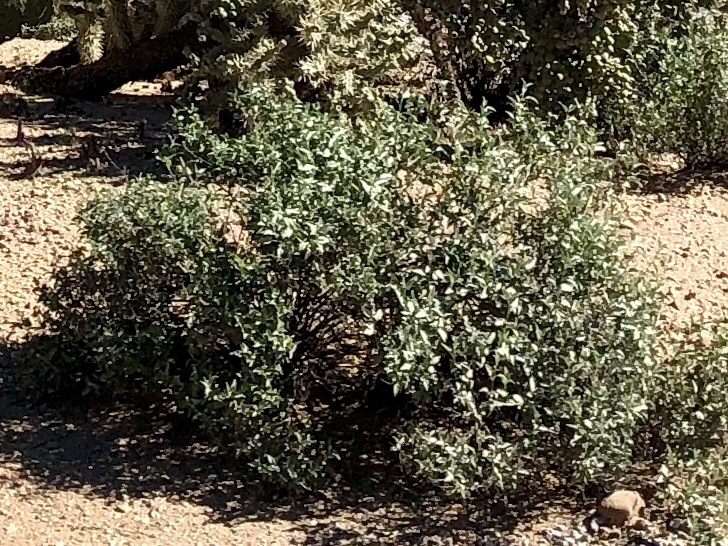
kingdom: Plantae
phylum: Tracheophyta
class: Magnoliopsida
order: Asterales
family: Asteraceae
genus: Ambrosia
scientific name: Ambrosia deltoidea
